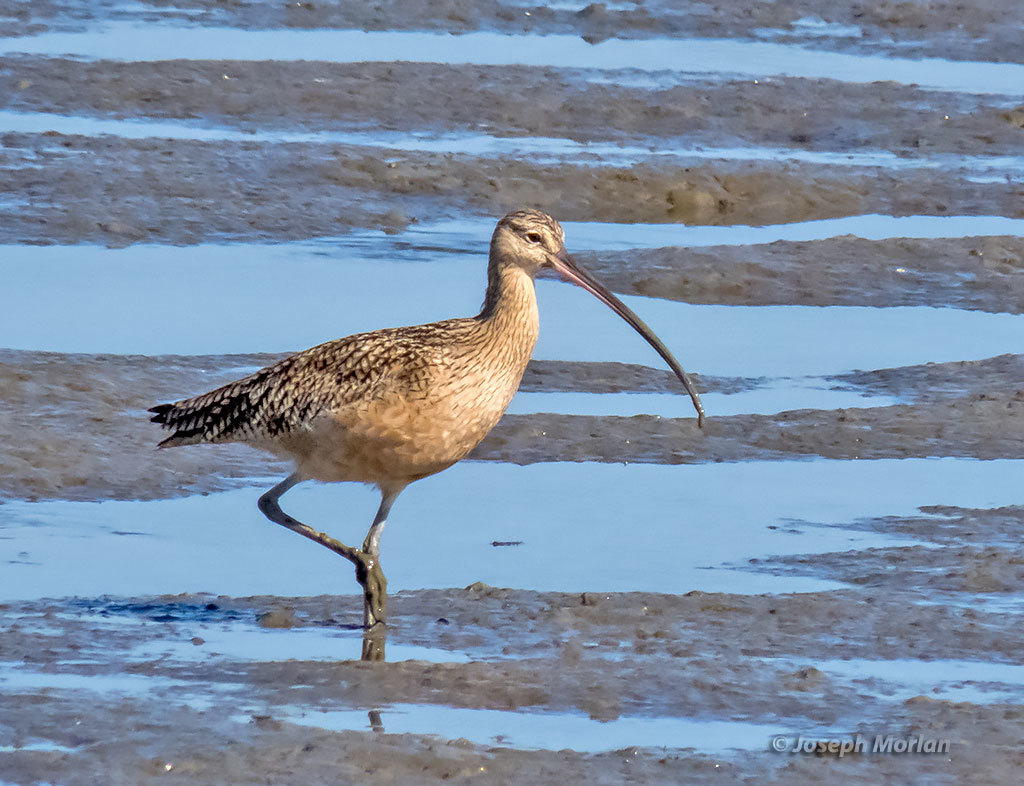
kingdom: Animalia
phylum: Chordata
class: Aves
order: Charadriiformes
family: Scolopacidae
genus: Numenius
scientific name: Numenius americanus
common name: Long-billed curlew
